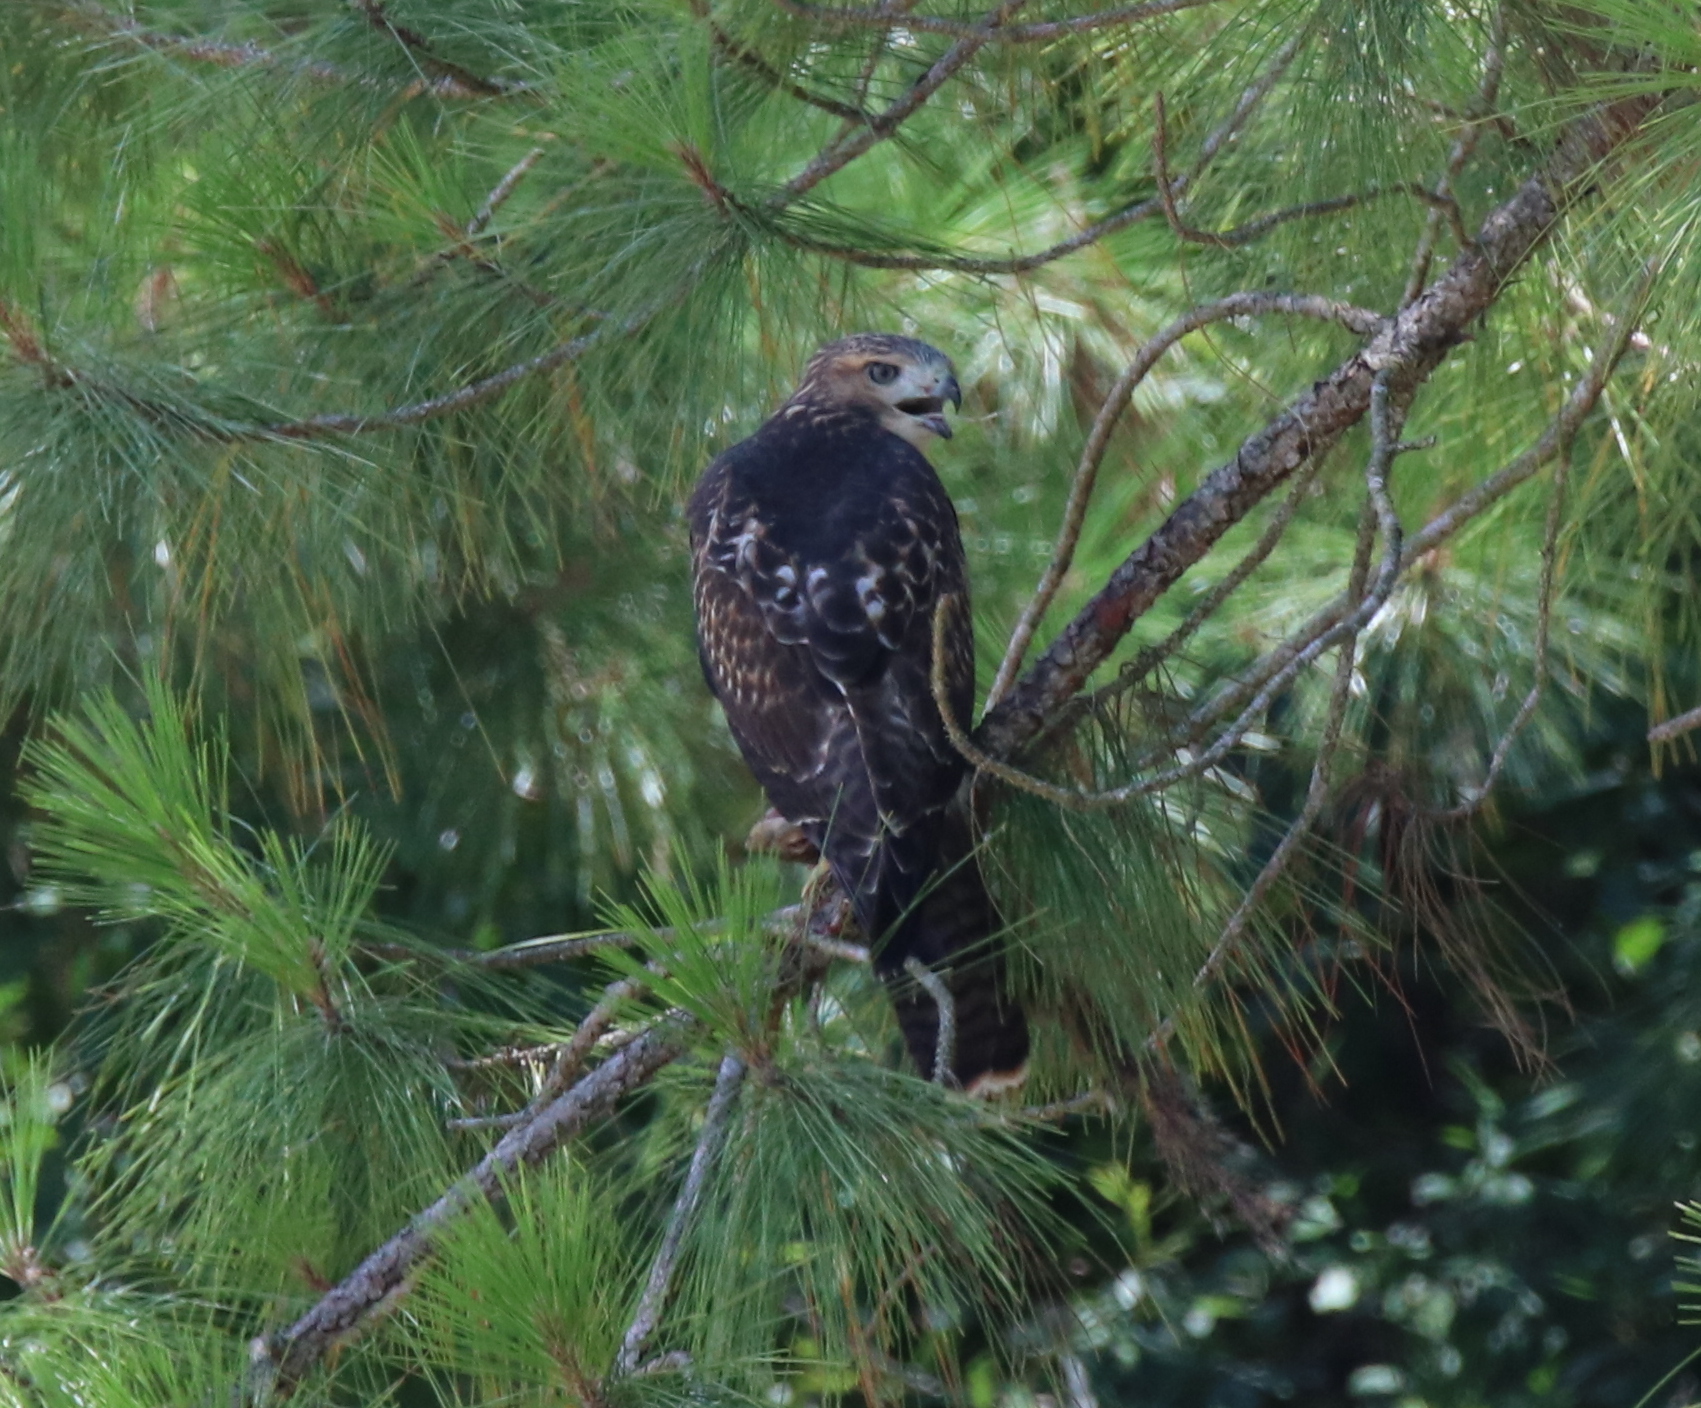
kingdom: Animalia
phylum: Chordata
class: Aves
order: Accipitriformes
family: Accipitridae
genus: Buteo
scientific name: Buteo platypterus
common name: Broad-winged hawk
